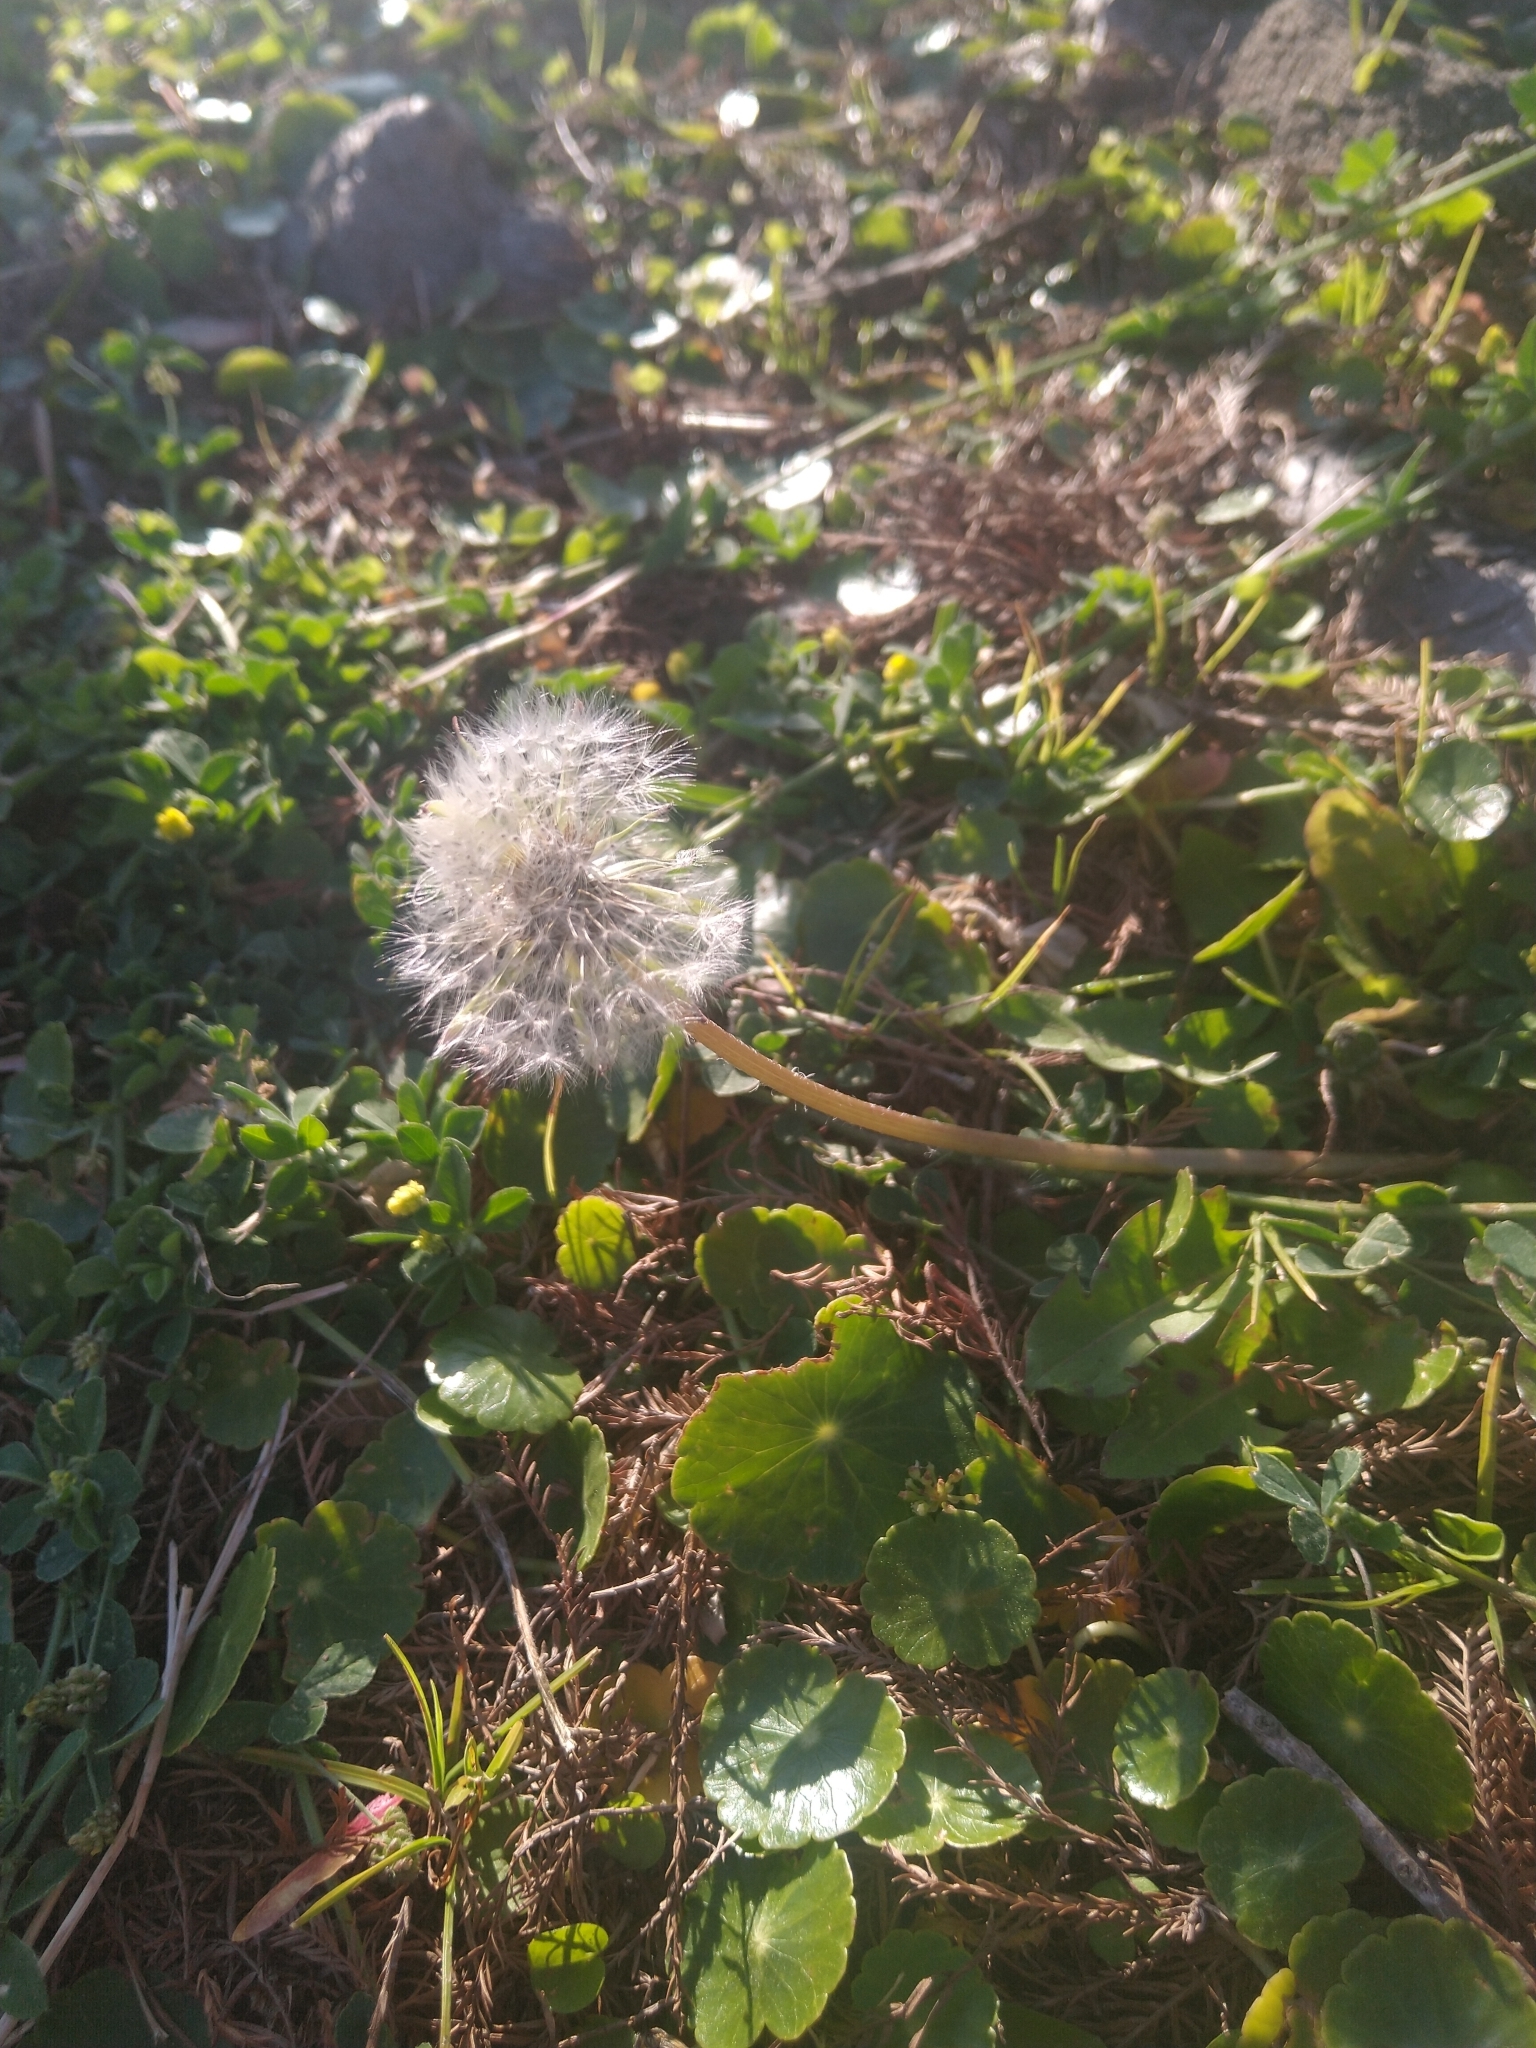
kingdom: Plantae
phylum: Tracheophyta
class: Magnoliopsida
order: Asterales
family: Asteraceae
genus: Taraxacum
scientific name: Taraxacum officinale
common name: Common dandelion
